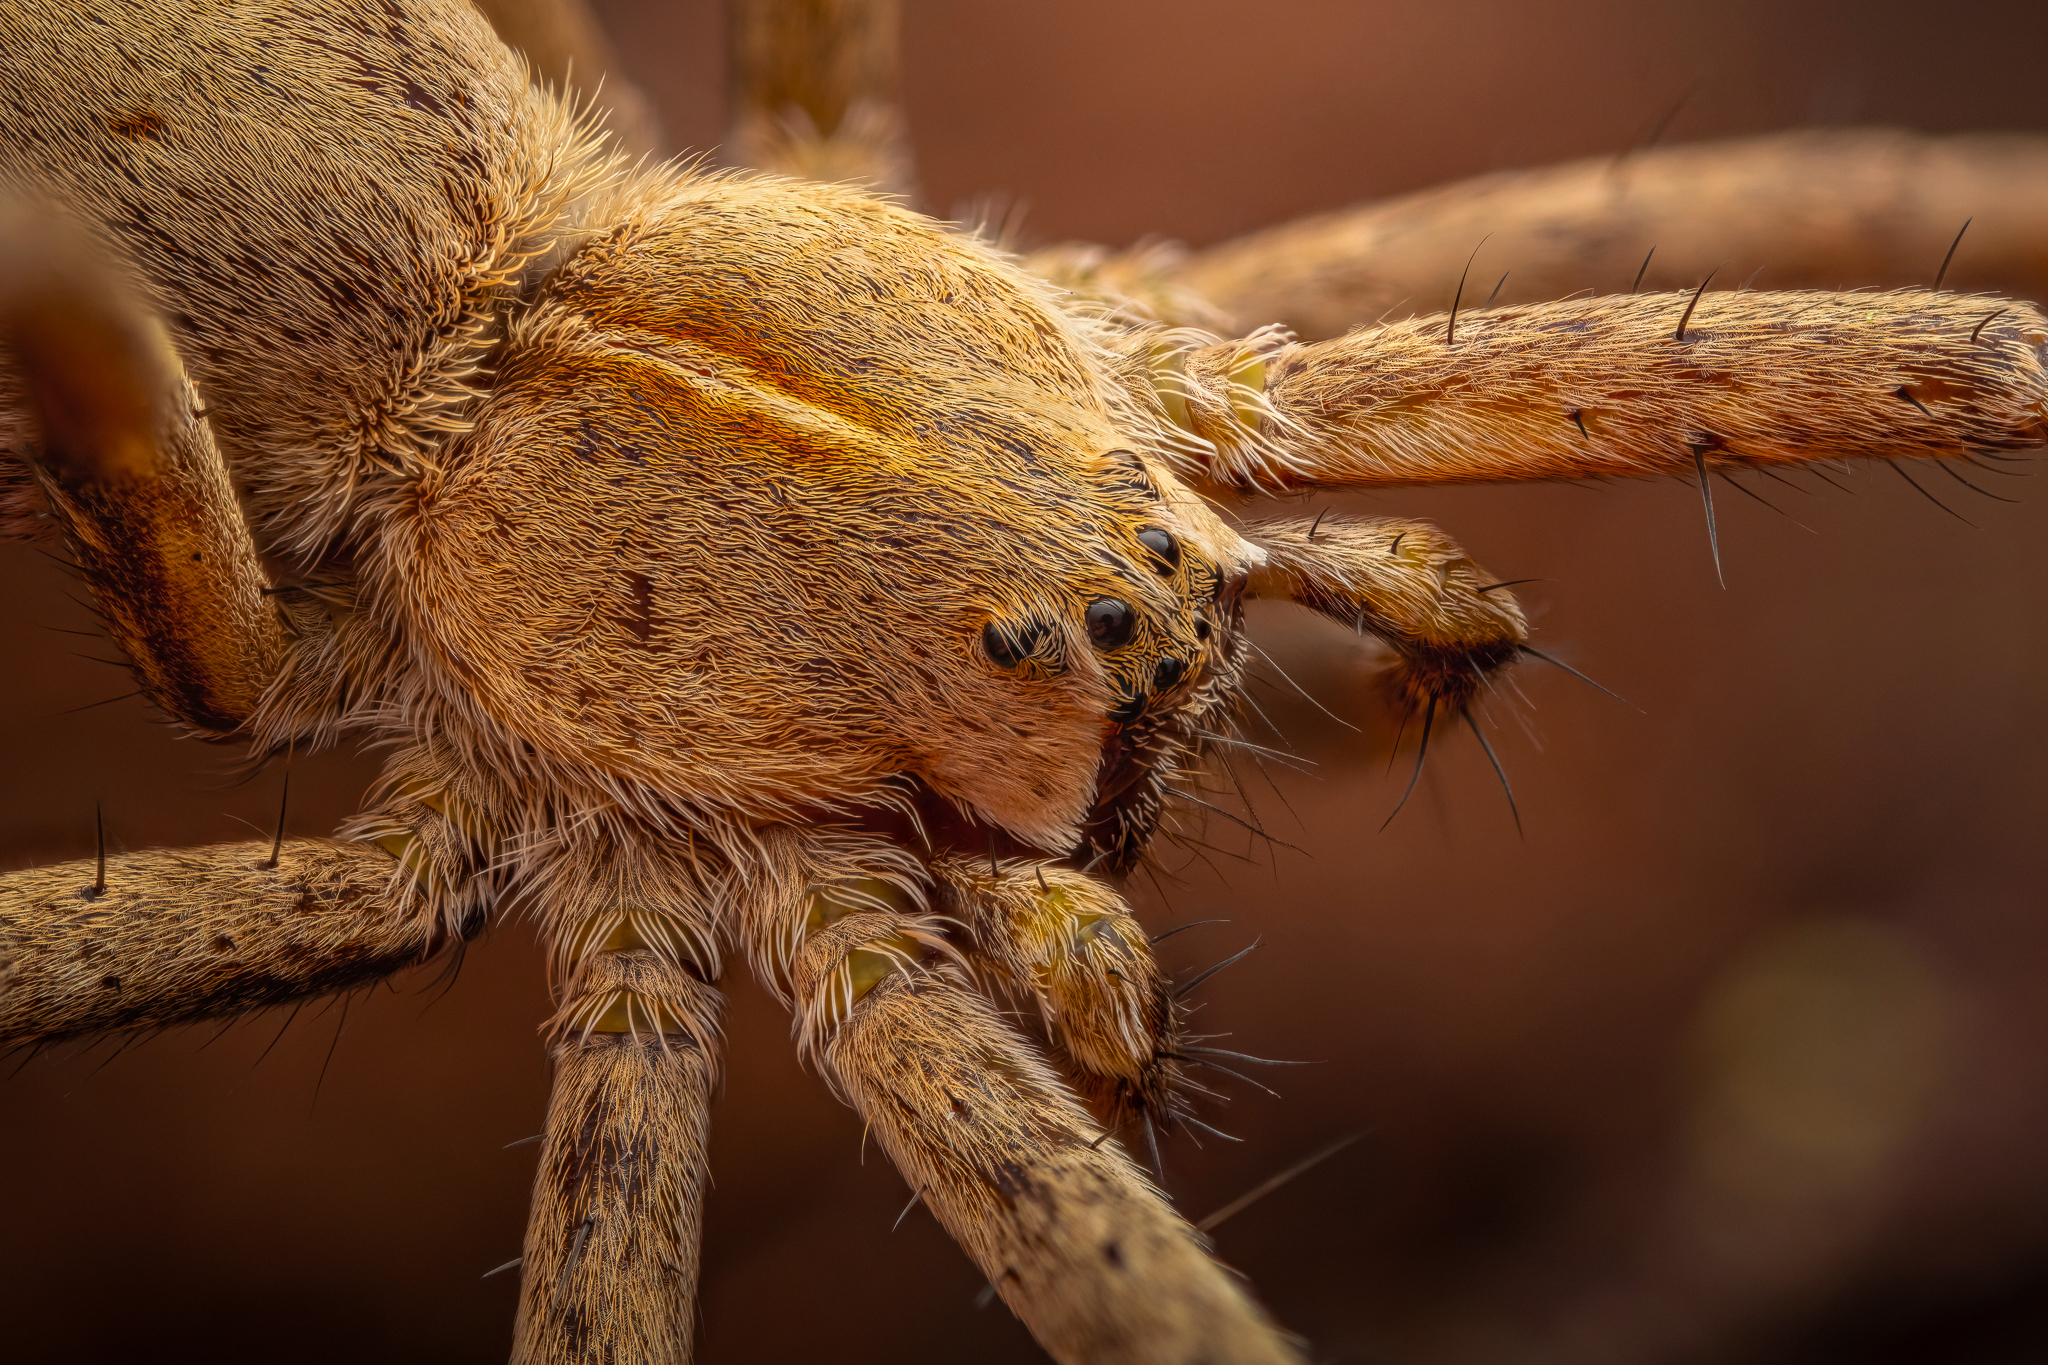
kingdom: Animalia
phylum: Arthropoda
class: Arachnida
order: Araneae
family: Pisauridae
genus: Pisaura
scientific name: Pisaura mirabilis
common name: Tent spider
